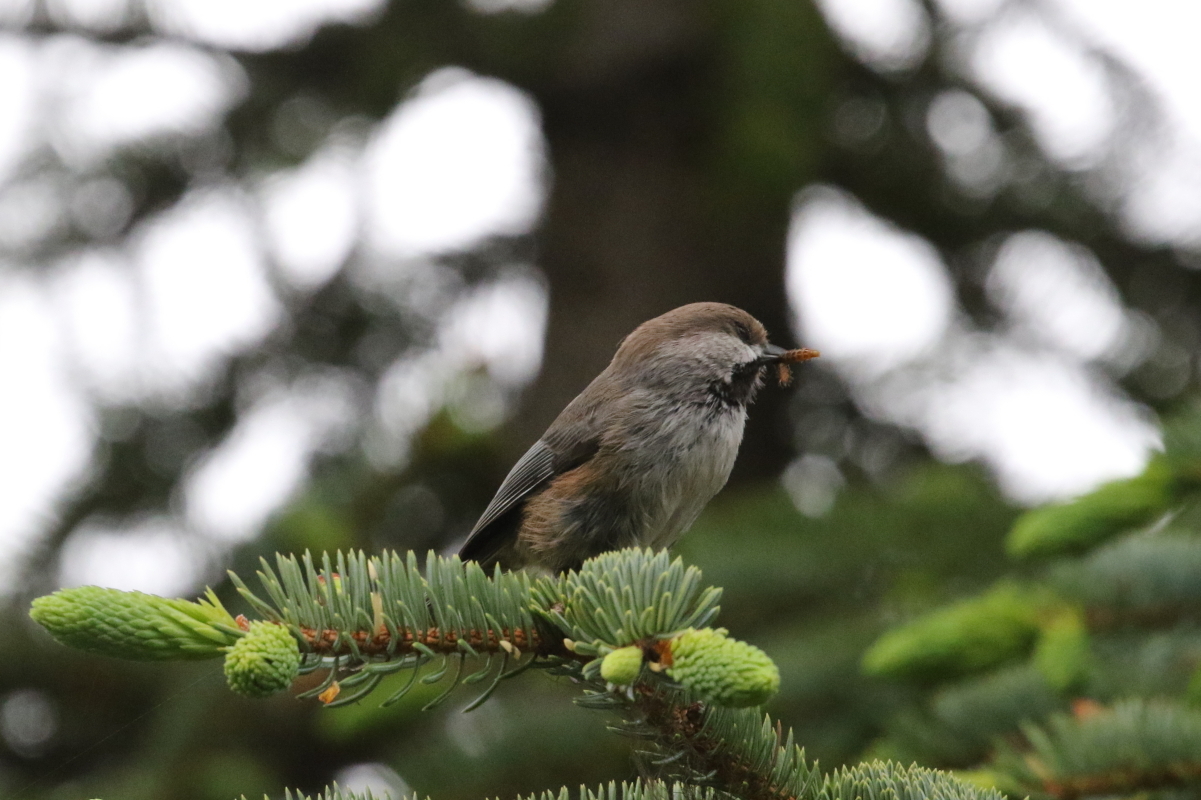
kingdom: Animalia
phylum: Chordata
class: Aves
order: Passeriformes
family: Paridae
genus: Poecile
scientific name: Poecile hudsonicus
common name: Boreal chickadee
